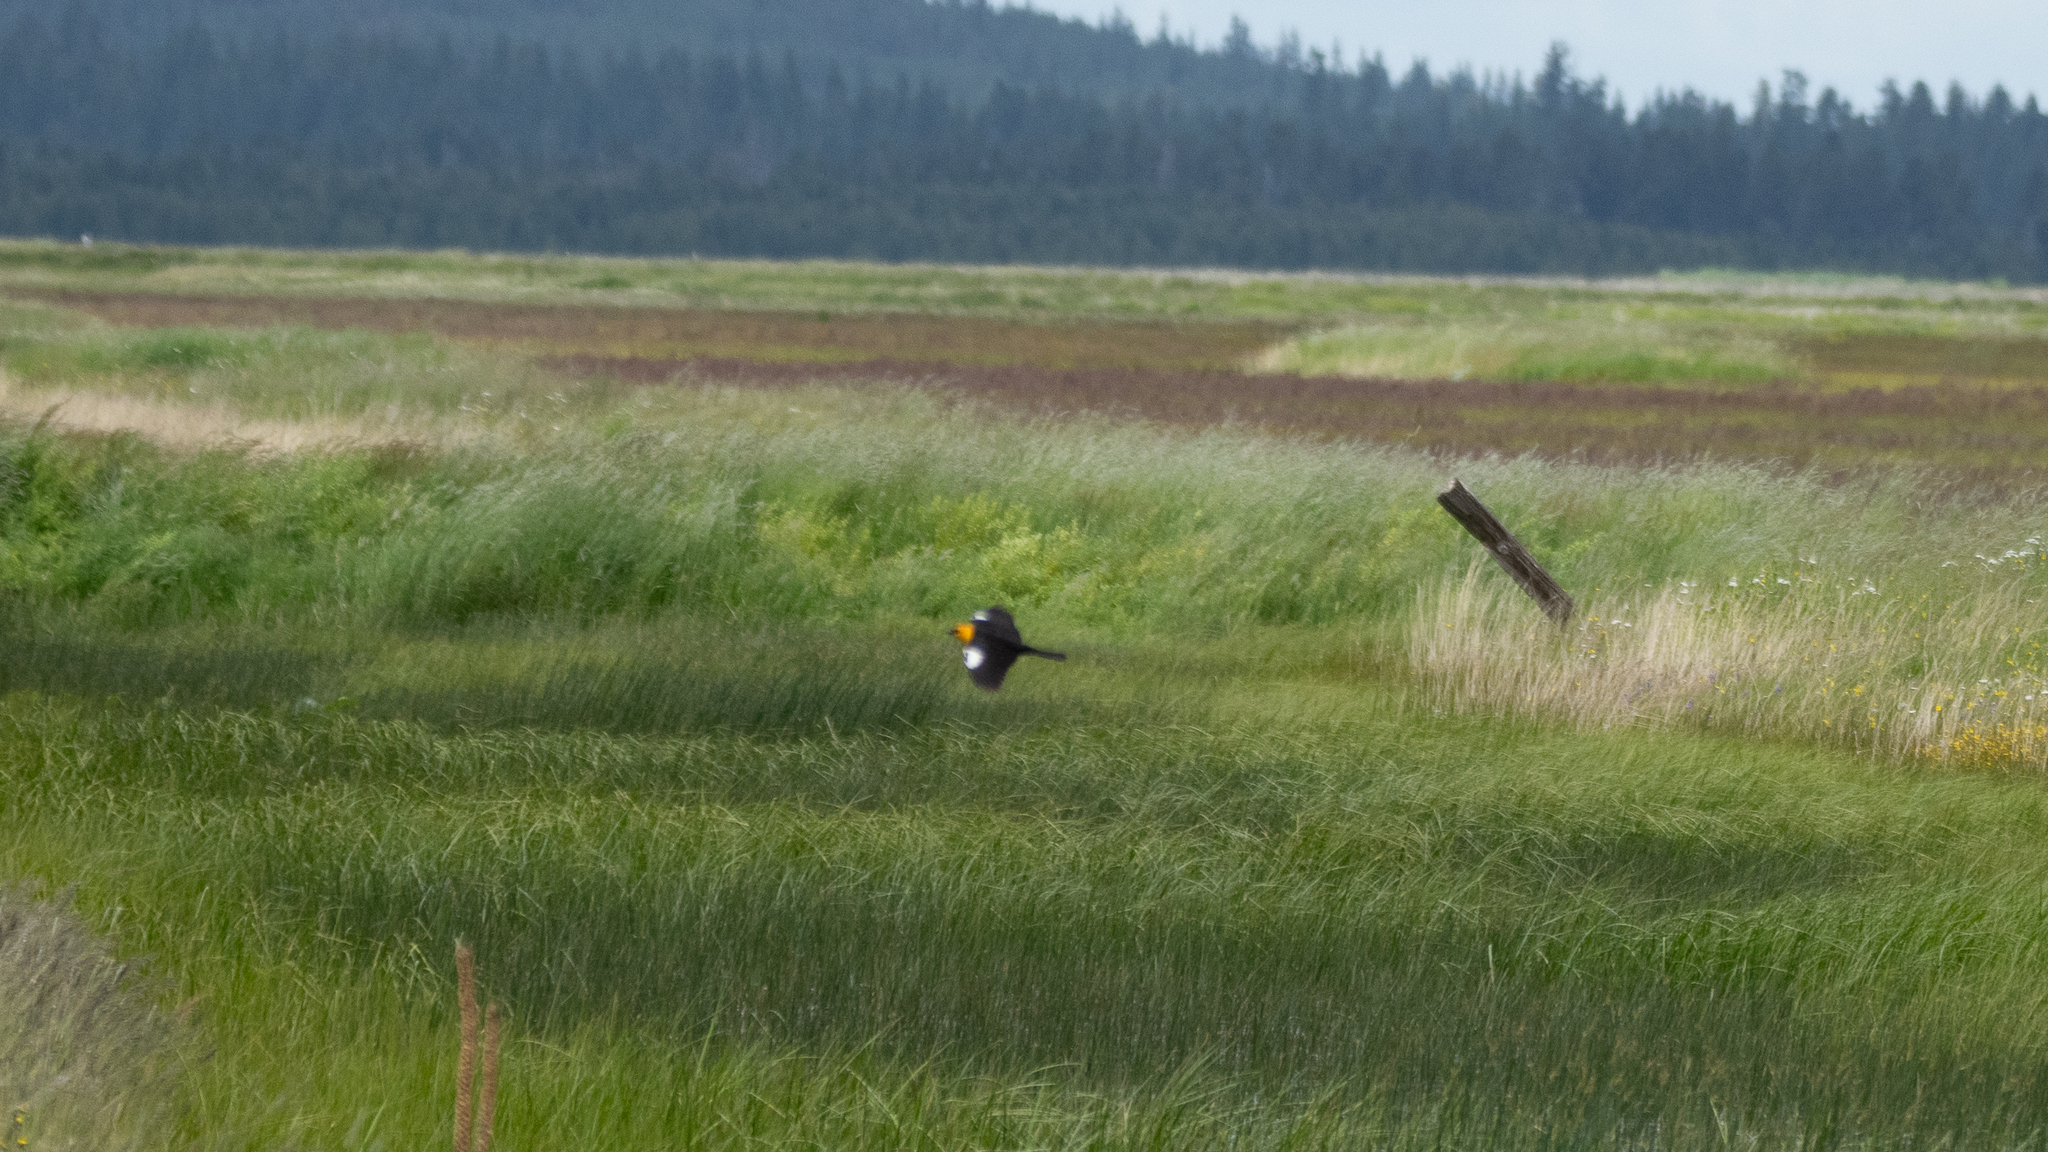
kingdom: Animalia
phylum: Chordata
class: Aves
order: Passeriformes
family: Icteridae
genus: Xanthocephalus
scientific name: Xanthocephalus xanthocephalus
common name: Yellow-headed blackbird
